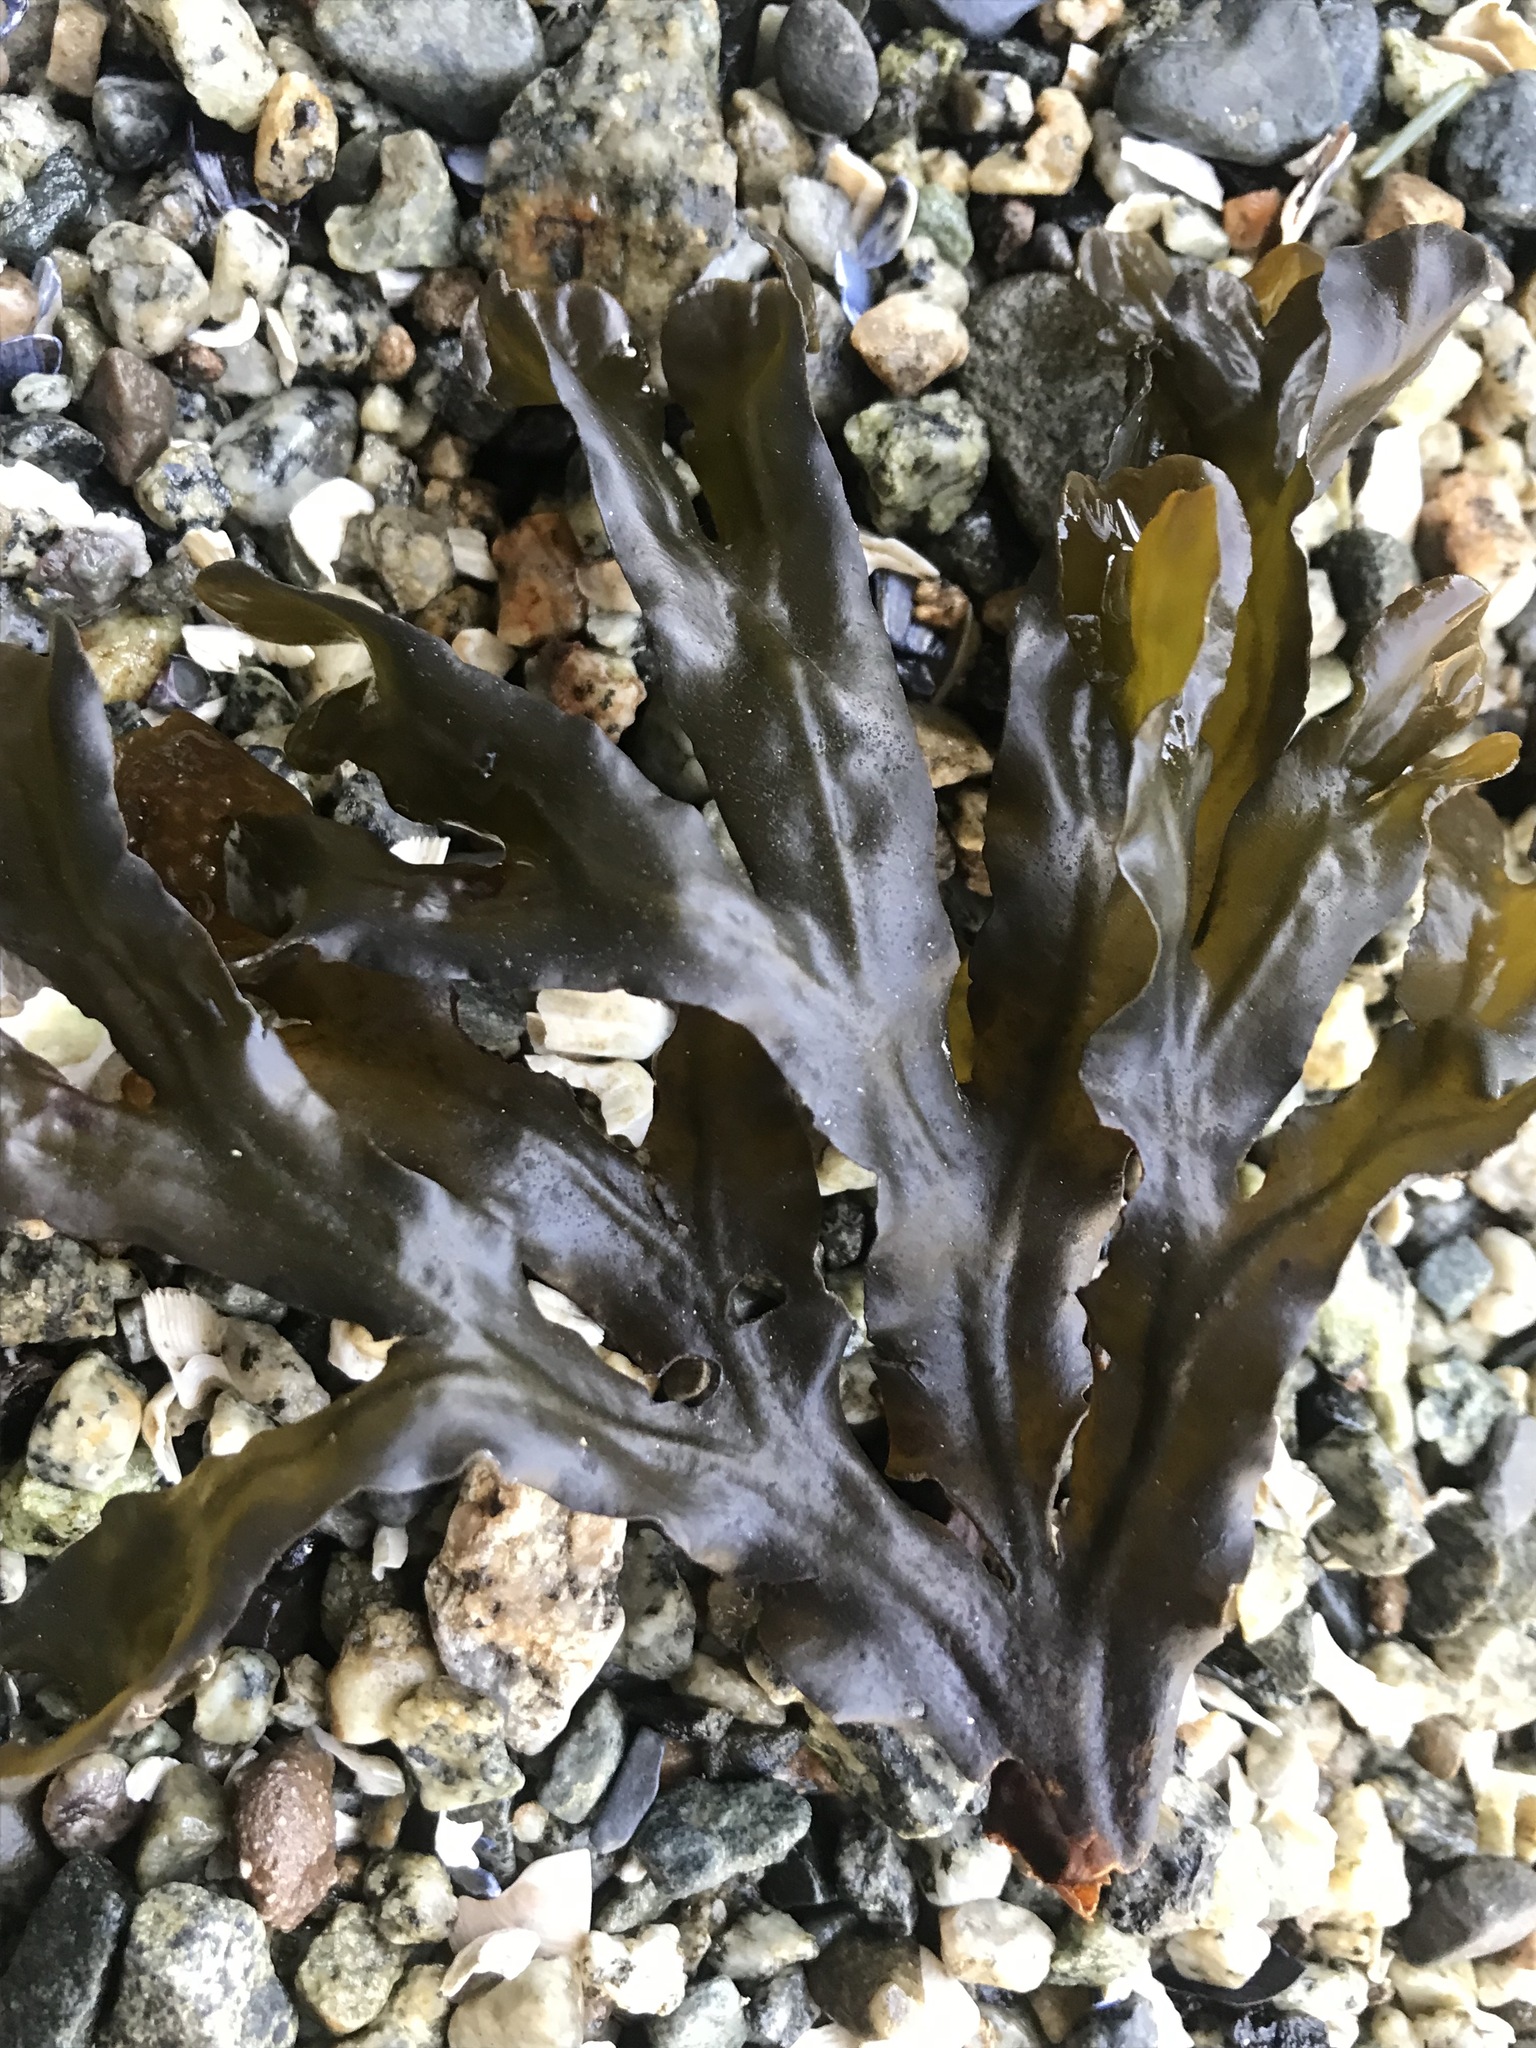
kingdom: Chromista
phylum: Ochrophyta
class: Phaeophyceae
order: Fucales
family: Fucaceae
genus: Fucus
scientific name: Fucus distichus
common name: Rockweed
